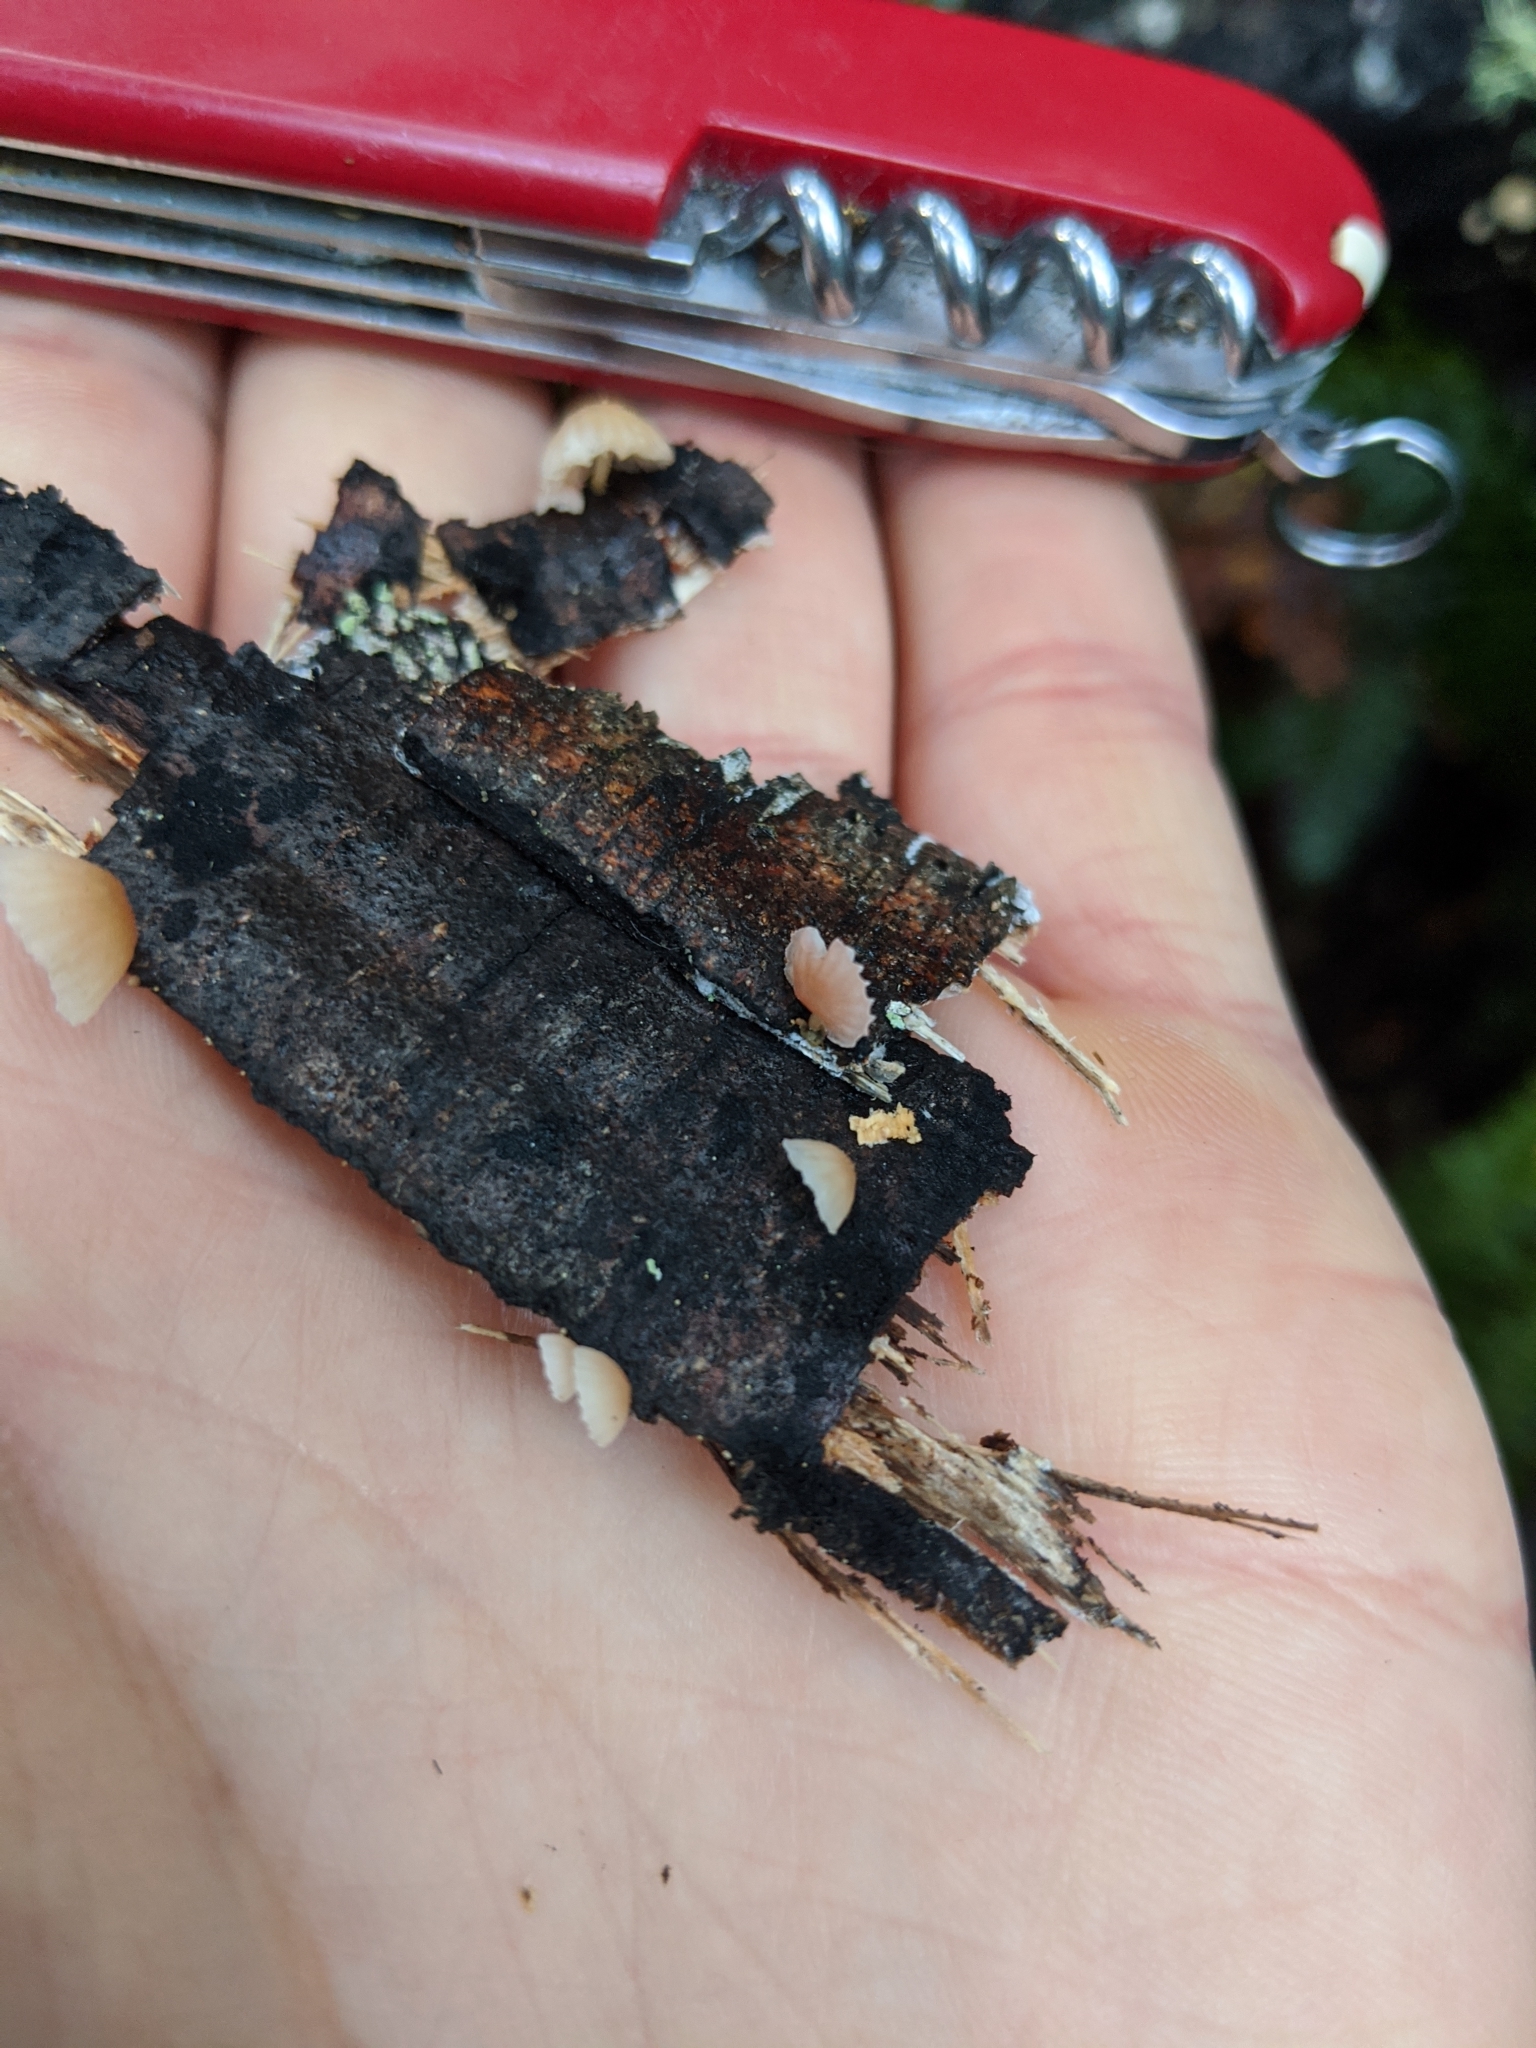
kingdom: Fungi
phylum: Basidiomycota
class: Agaricomycetes
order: Agaricales
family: Mycenaceae
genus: Mycena
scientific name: Mycena roseoflava
